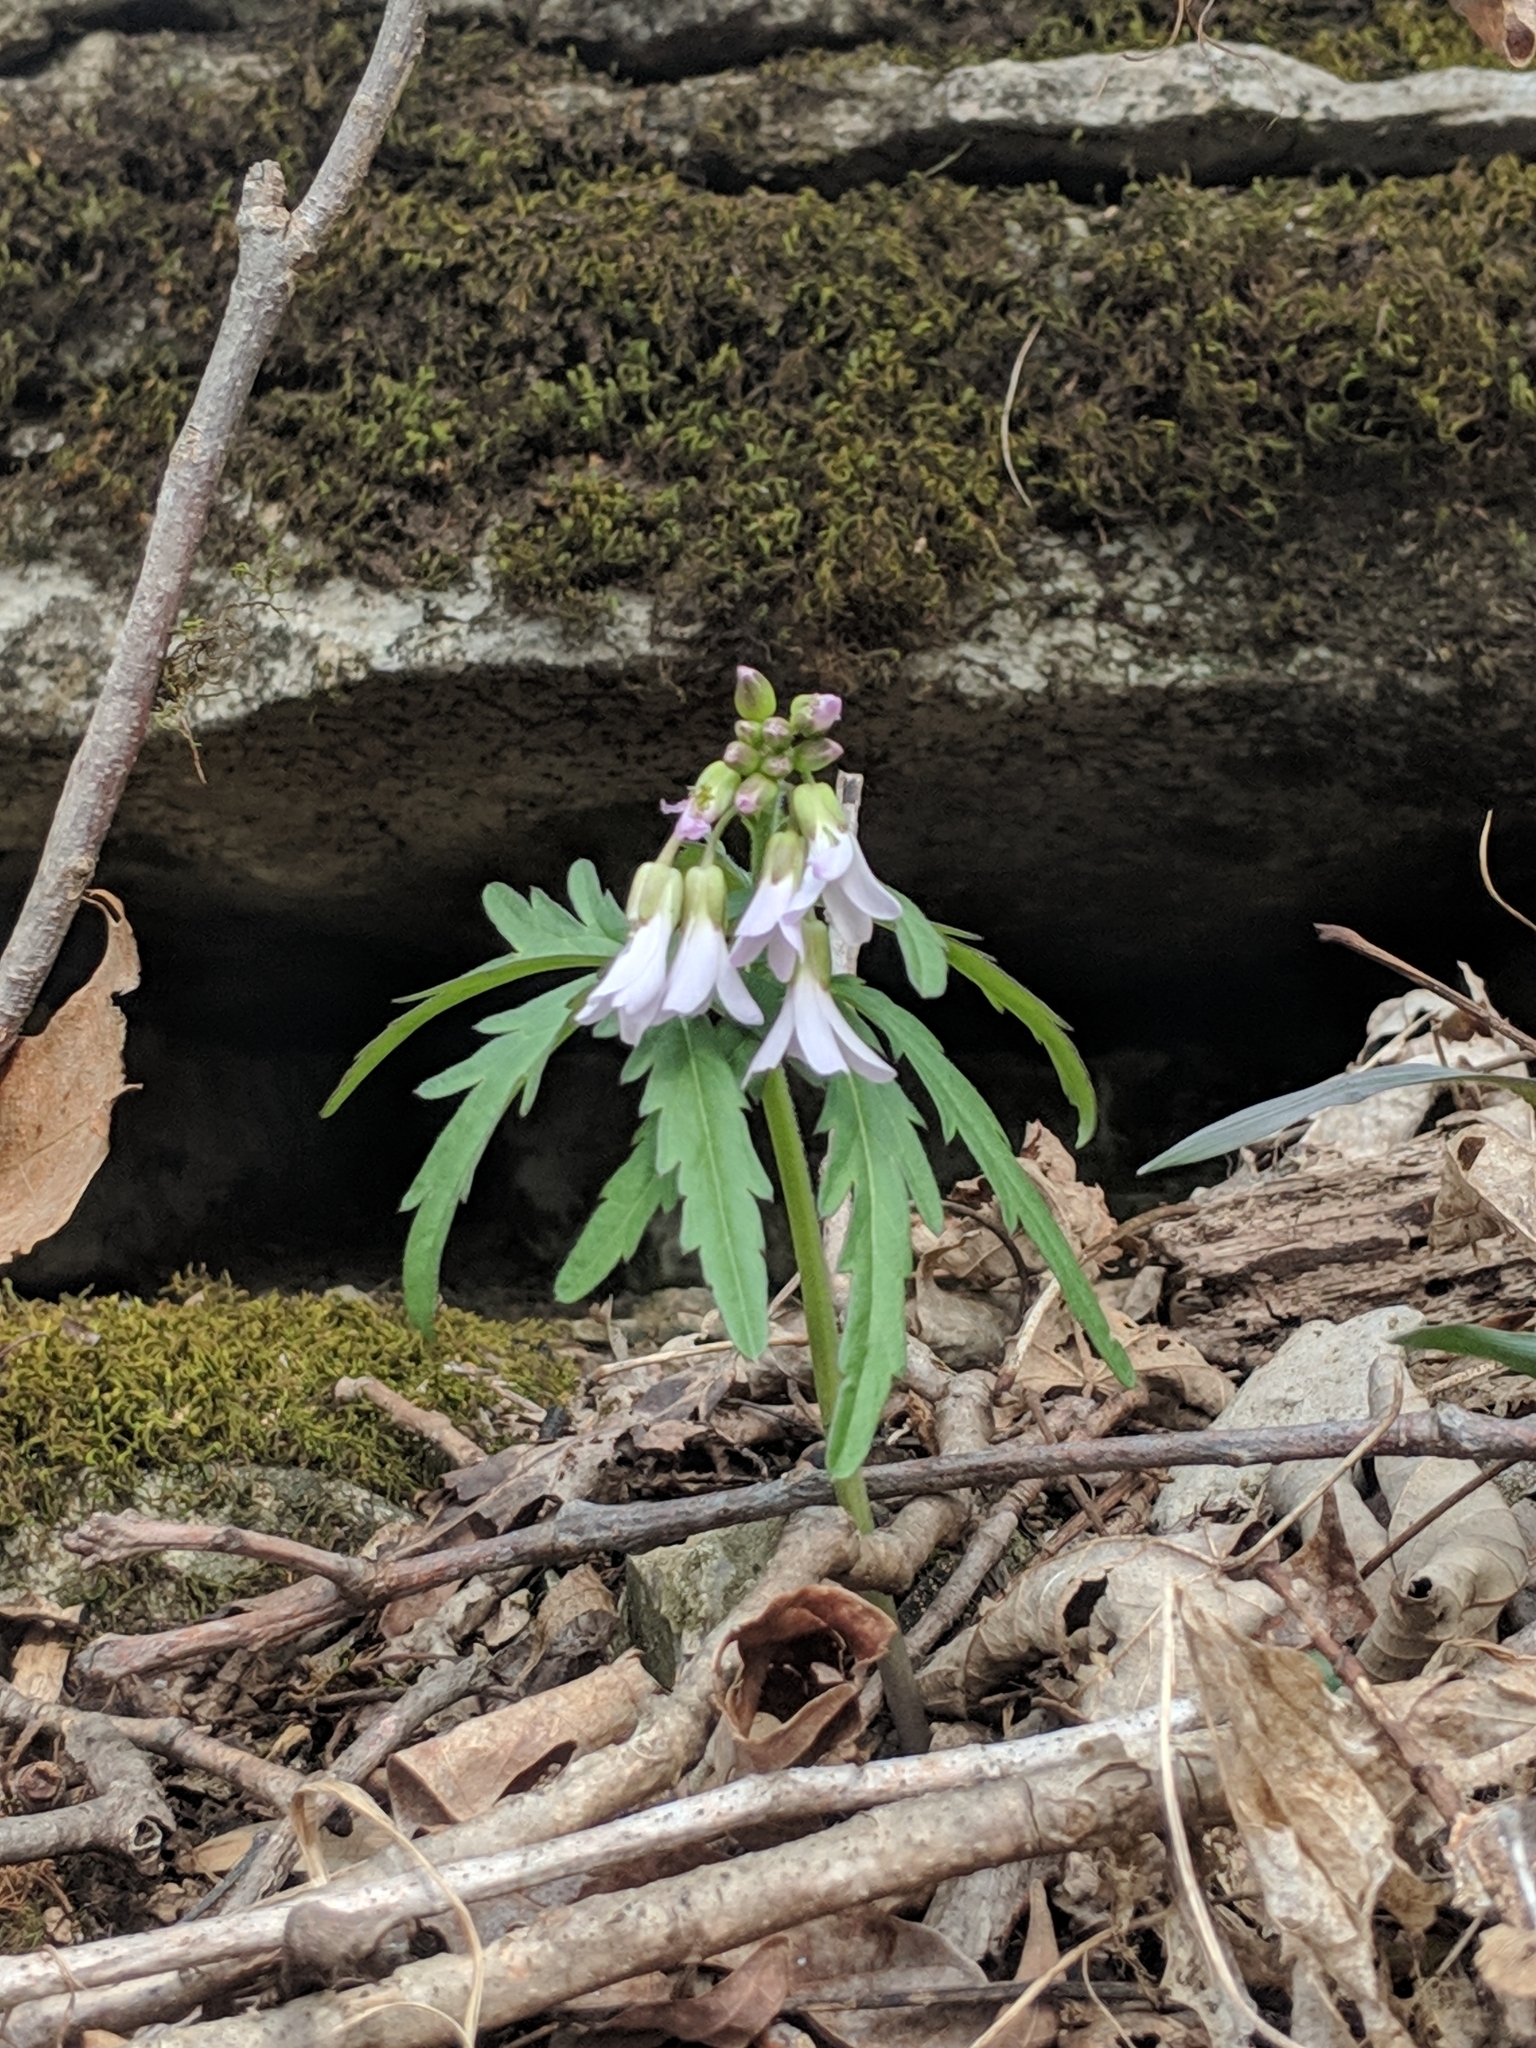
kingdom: Plantae
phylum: Tracheophyta
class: Magnoliopsida
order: Brassicales
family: Brassicaceae
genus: Cardamine
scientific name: Cardamine concatenata
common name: Cut-leaf toothcup
